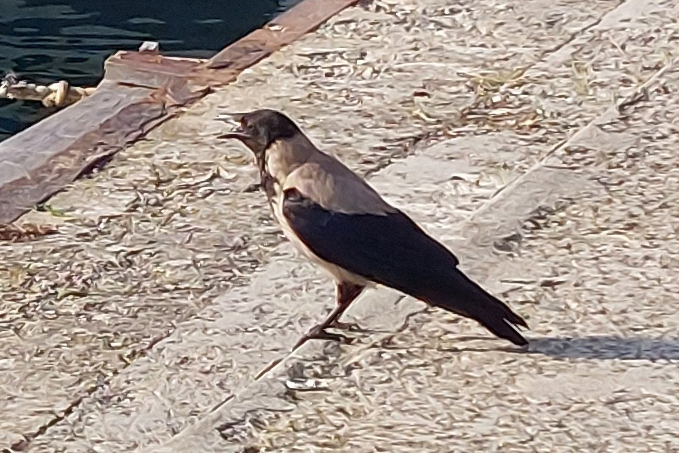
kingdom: Animalia
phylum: Chordata
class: Aves
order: Passeriformes
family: Corvidae
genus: Corvus
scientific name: Corvus cornix
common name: Hooded crow
